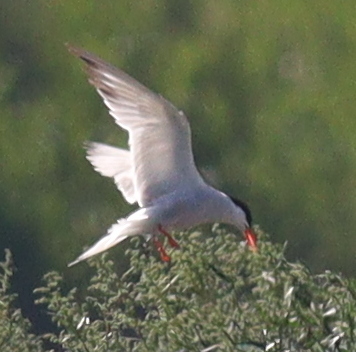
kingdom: Animalia
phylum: Chordata
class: Aves
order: Charadriiformes
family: Laridae
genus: Sterna
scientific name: Sterna hirundo
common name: Common tern
